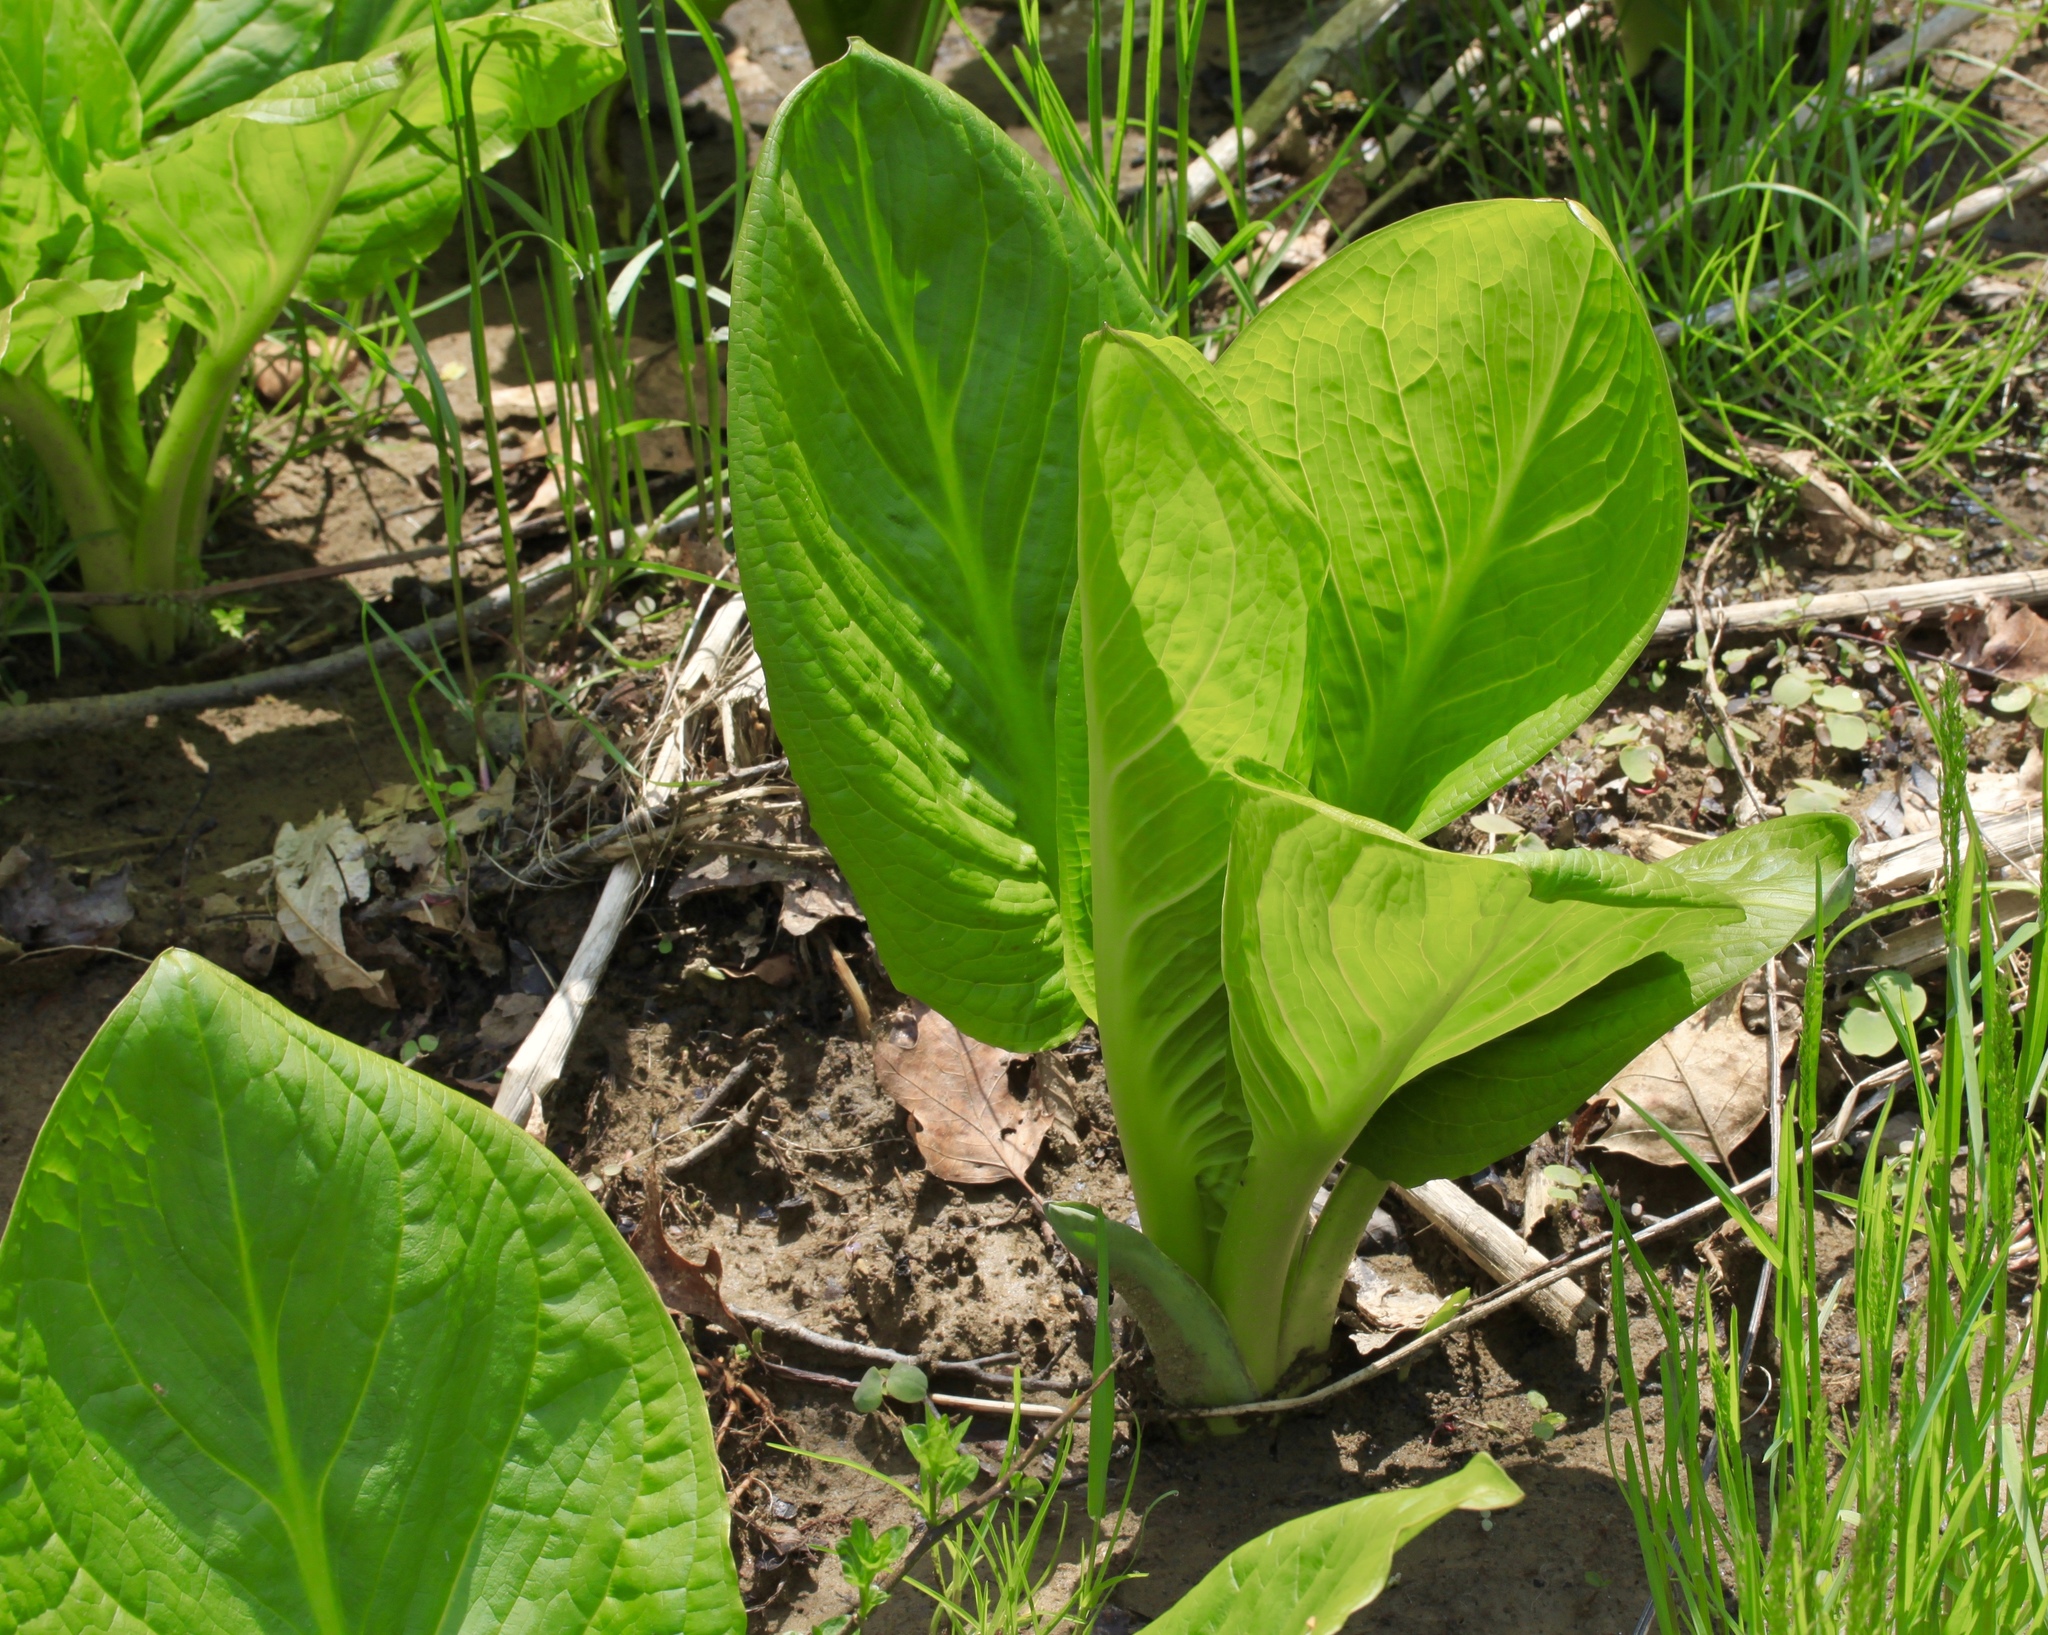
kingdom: Plantae
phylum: Tracheophyta
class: Liliopsida
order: Alismatales
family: Araceae
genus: Symplocarpus
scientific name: Symplocarpus foetidus
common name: Eastern skunk cabbage
